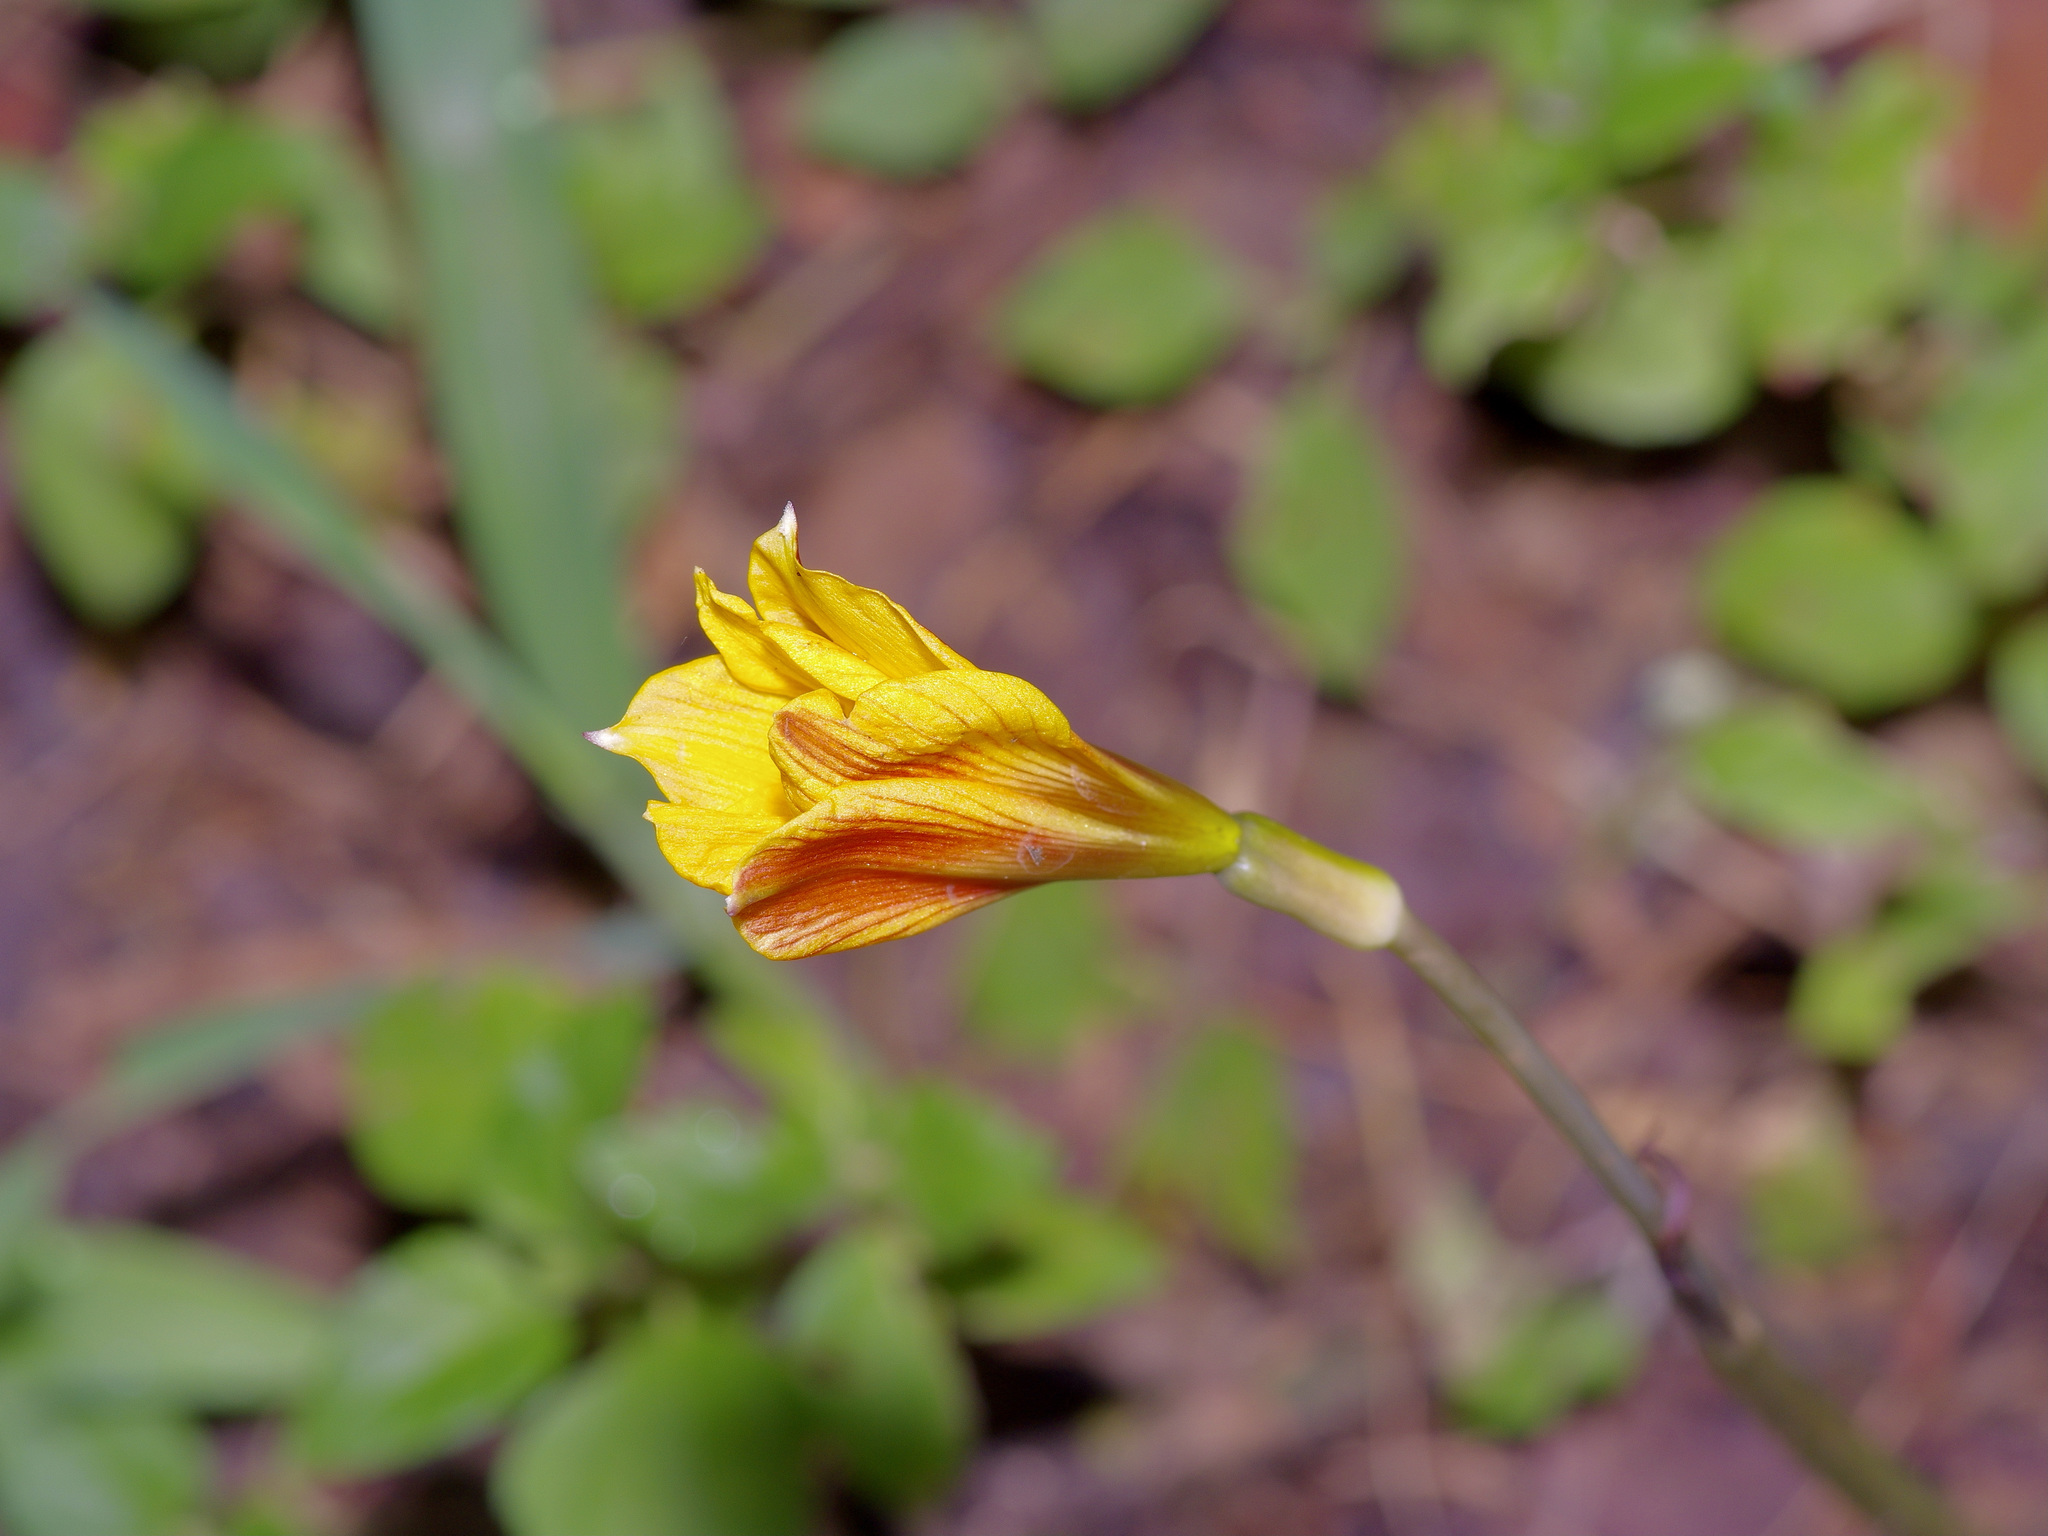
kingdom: Plantae
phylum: Tracheophyta
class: Liliopsida
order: Asparagales
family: Amaryllidaceae
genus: Zephyranthes
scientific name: Zephyranthes tubispatha
